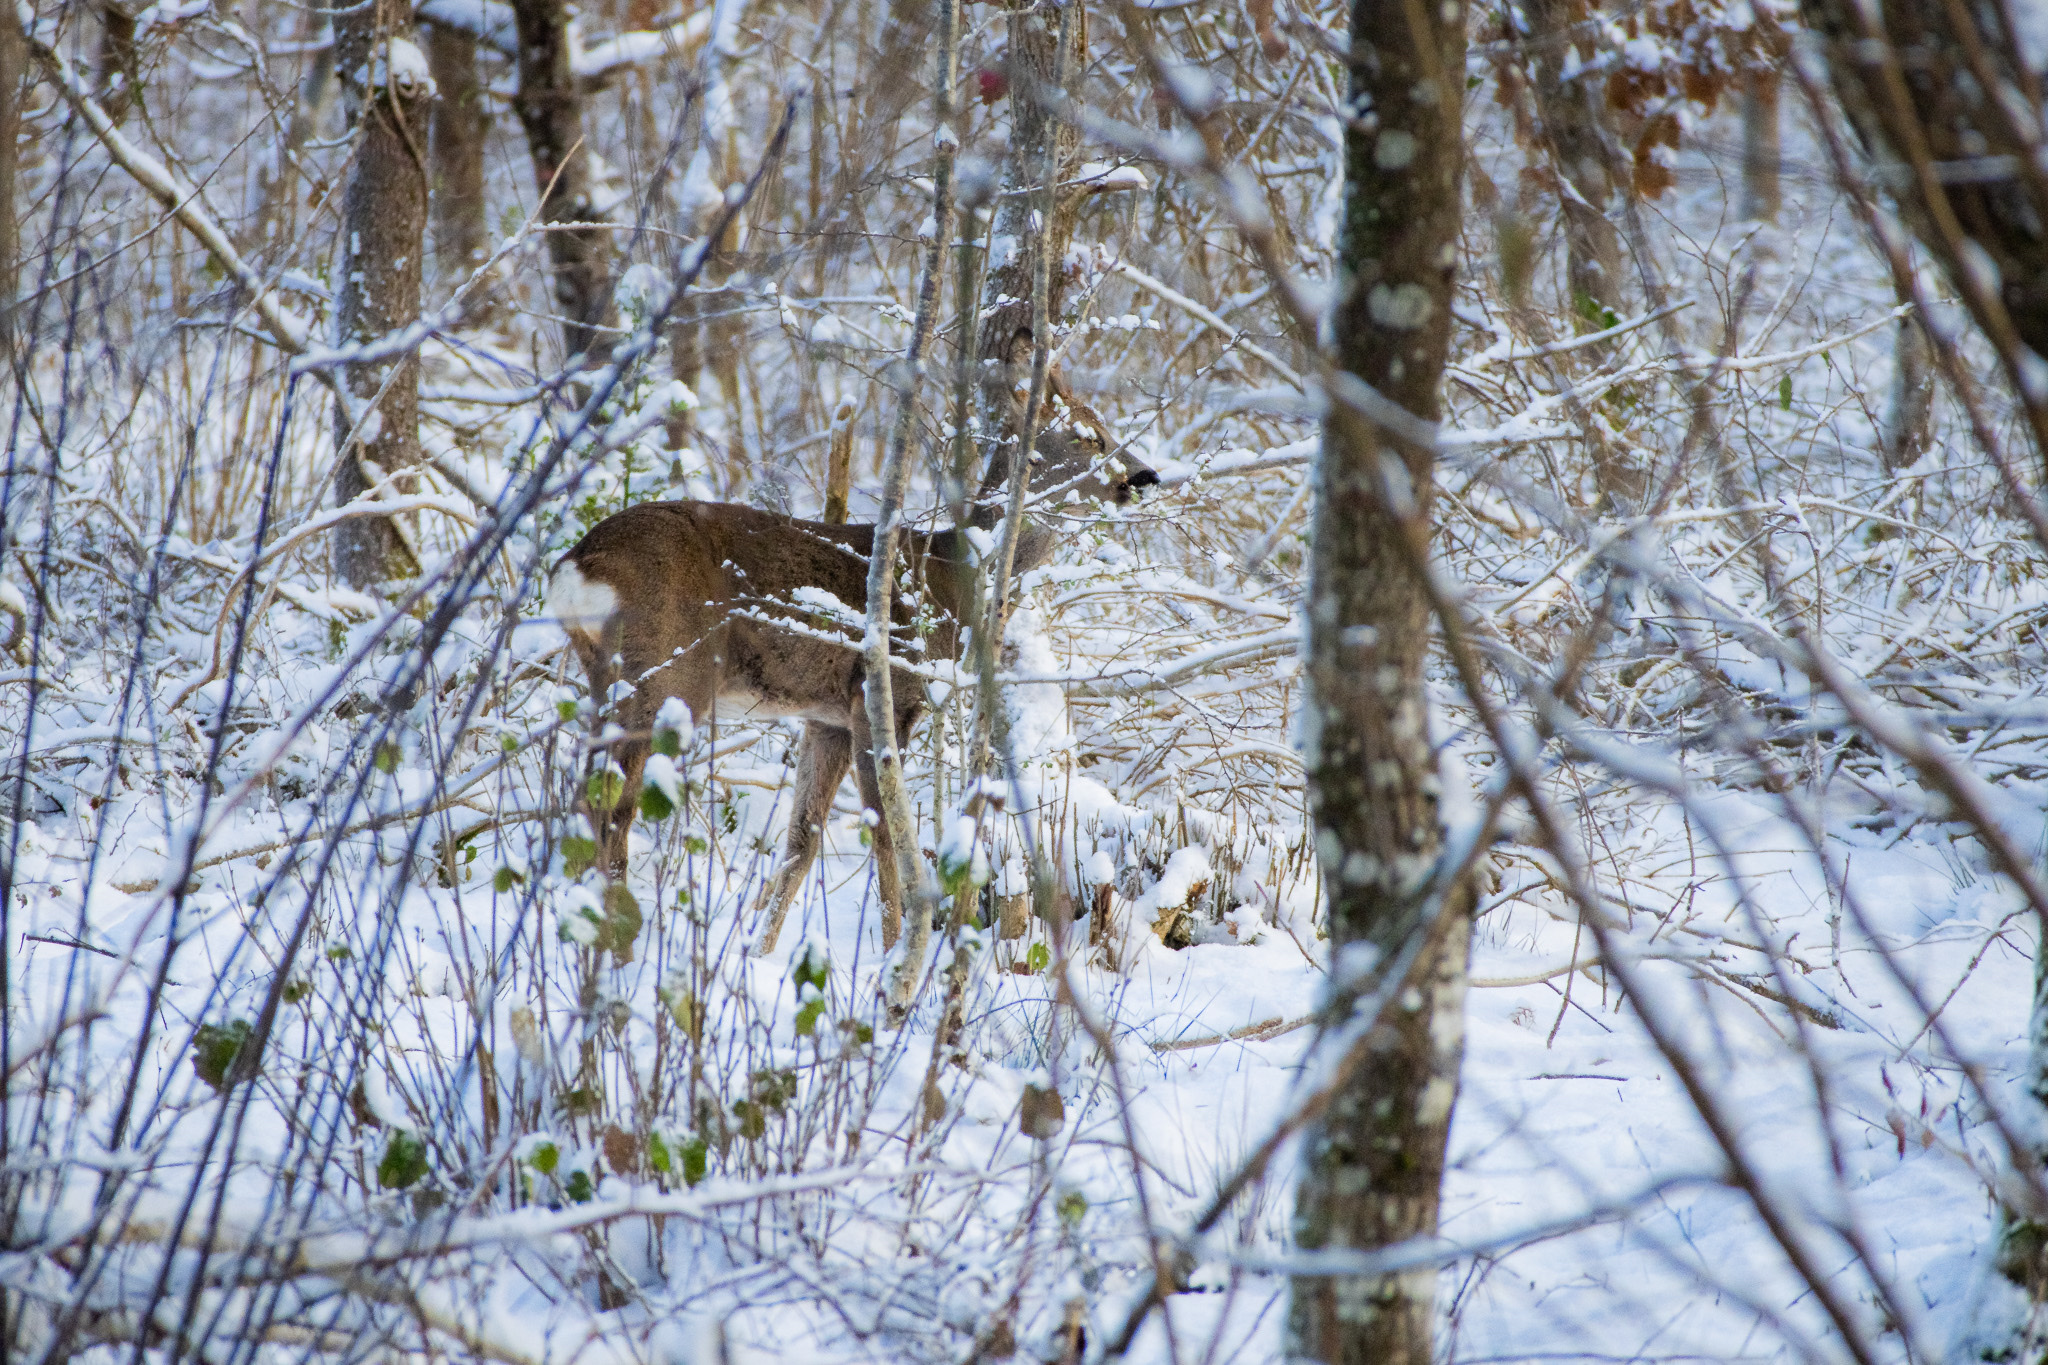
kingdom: Animalia
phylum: Chordata
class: Mammalia
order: Artiodactyla
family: Cervidae
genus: Capreolus
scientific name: Capreolus capreolus
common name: Western roe deer
